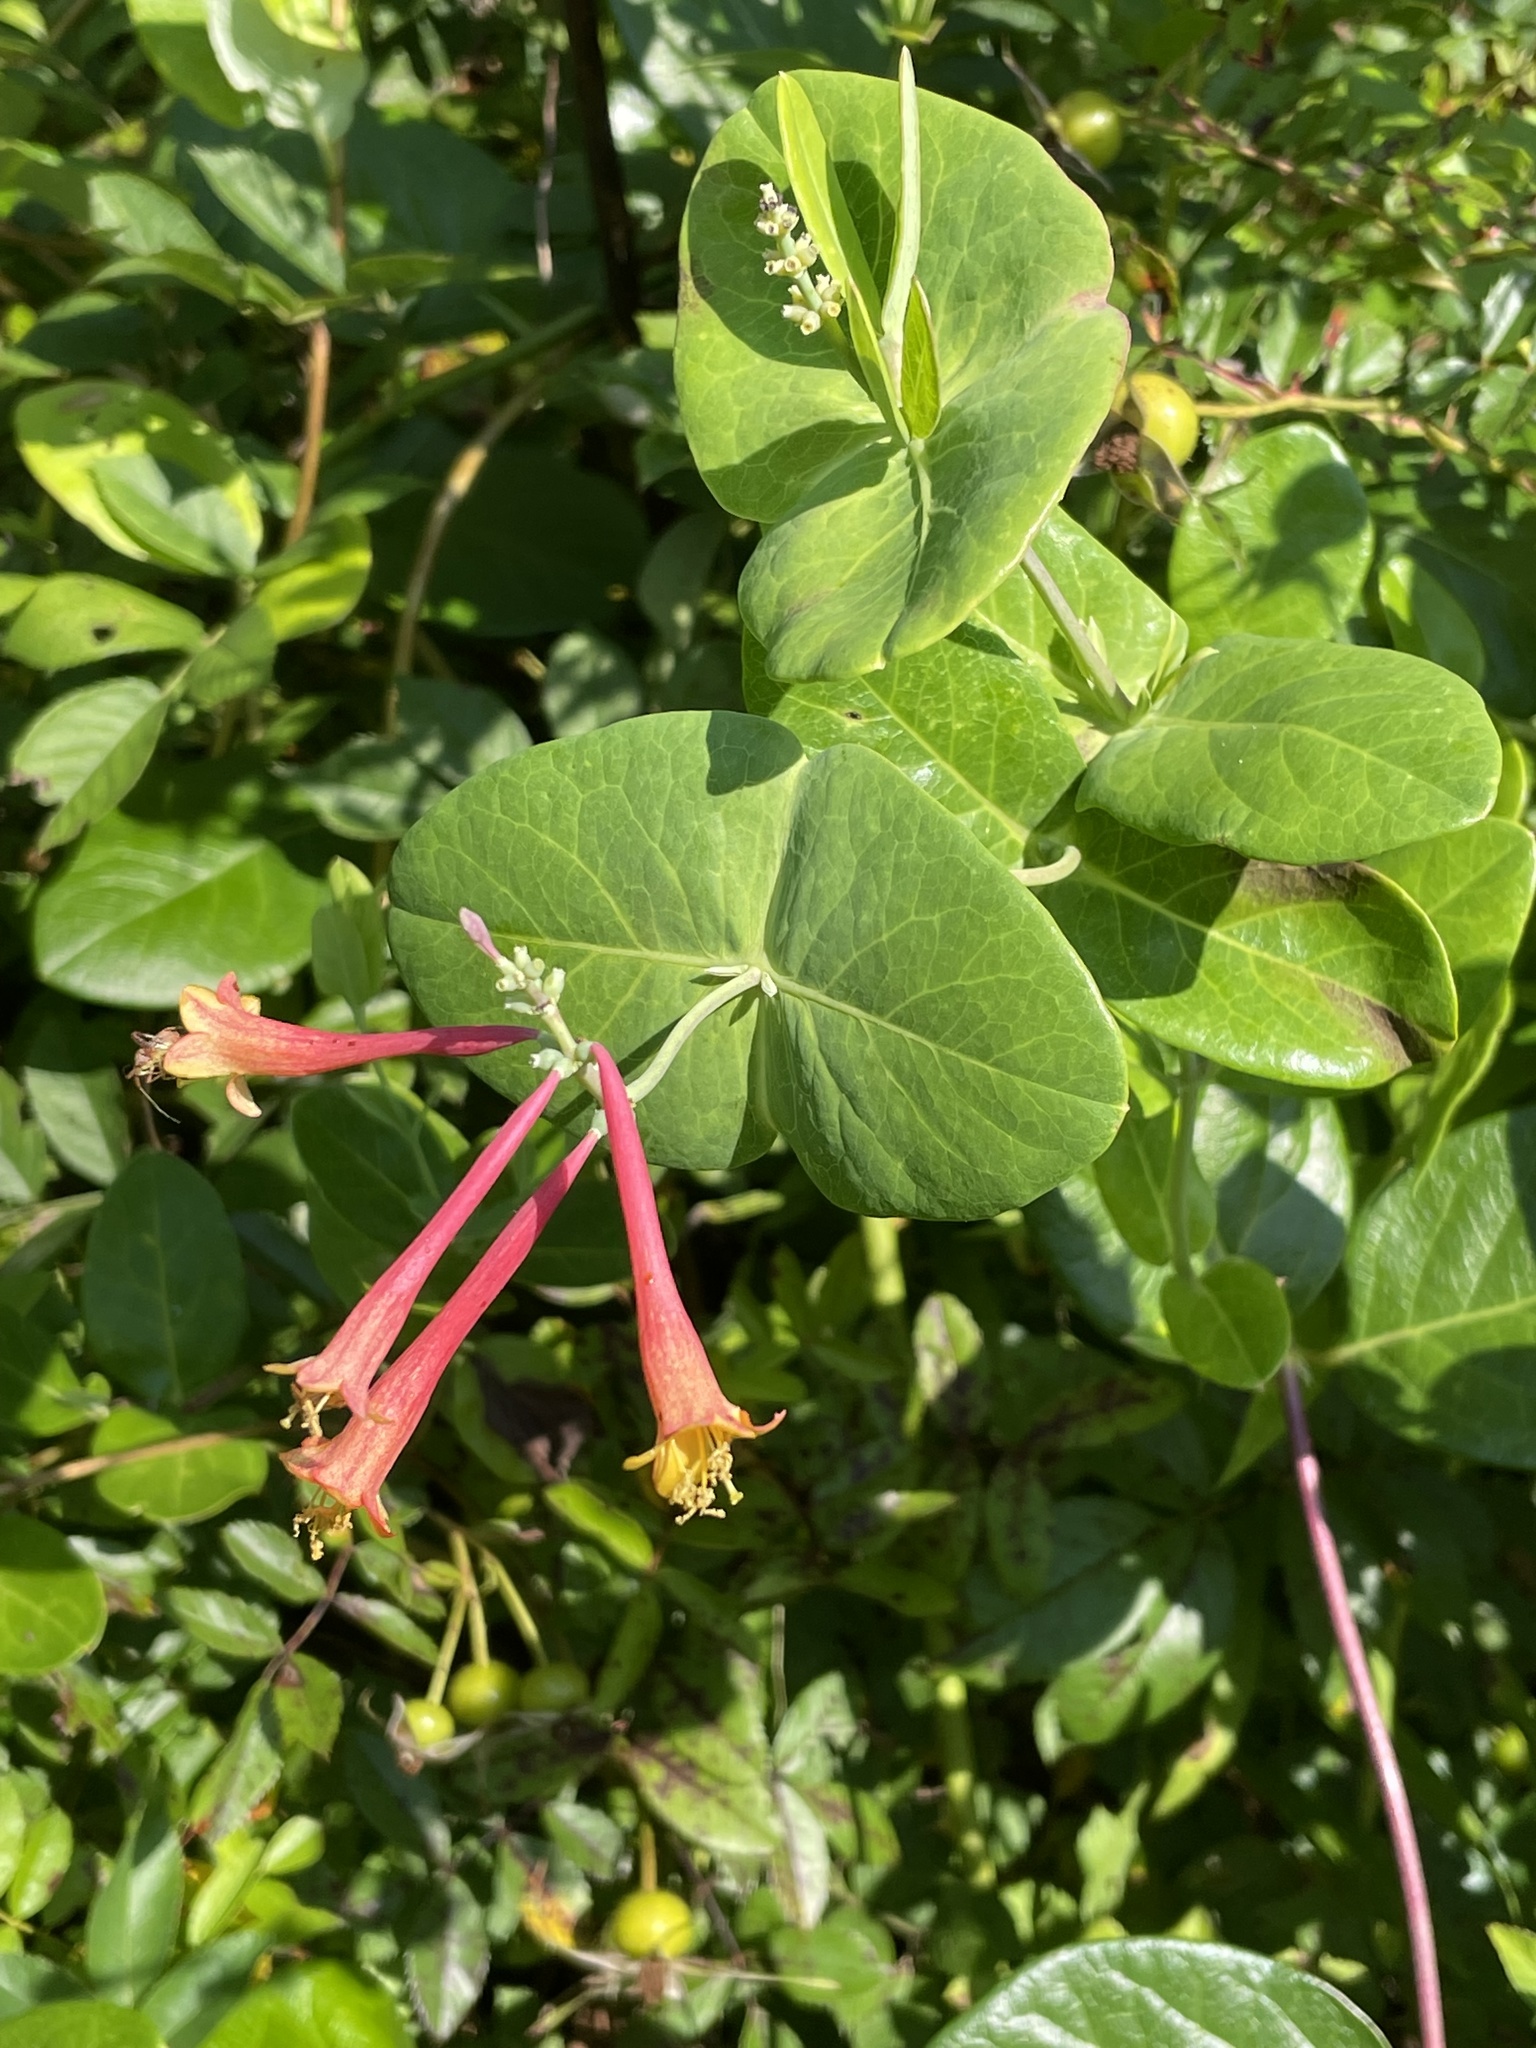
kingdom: Plantae
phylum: Tracheophyta
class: Magnoliopsida
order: Dipsacales
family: Caprifoliaceae
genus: Lonicera
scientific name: Lonicera sempervirens
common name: Coral honeysuckle
